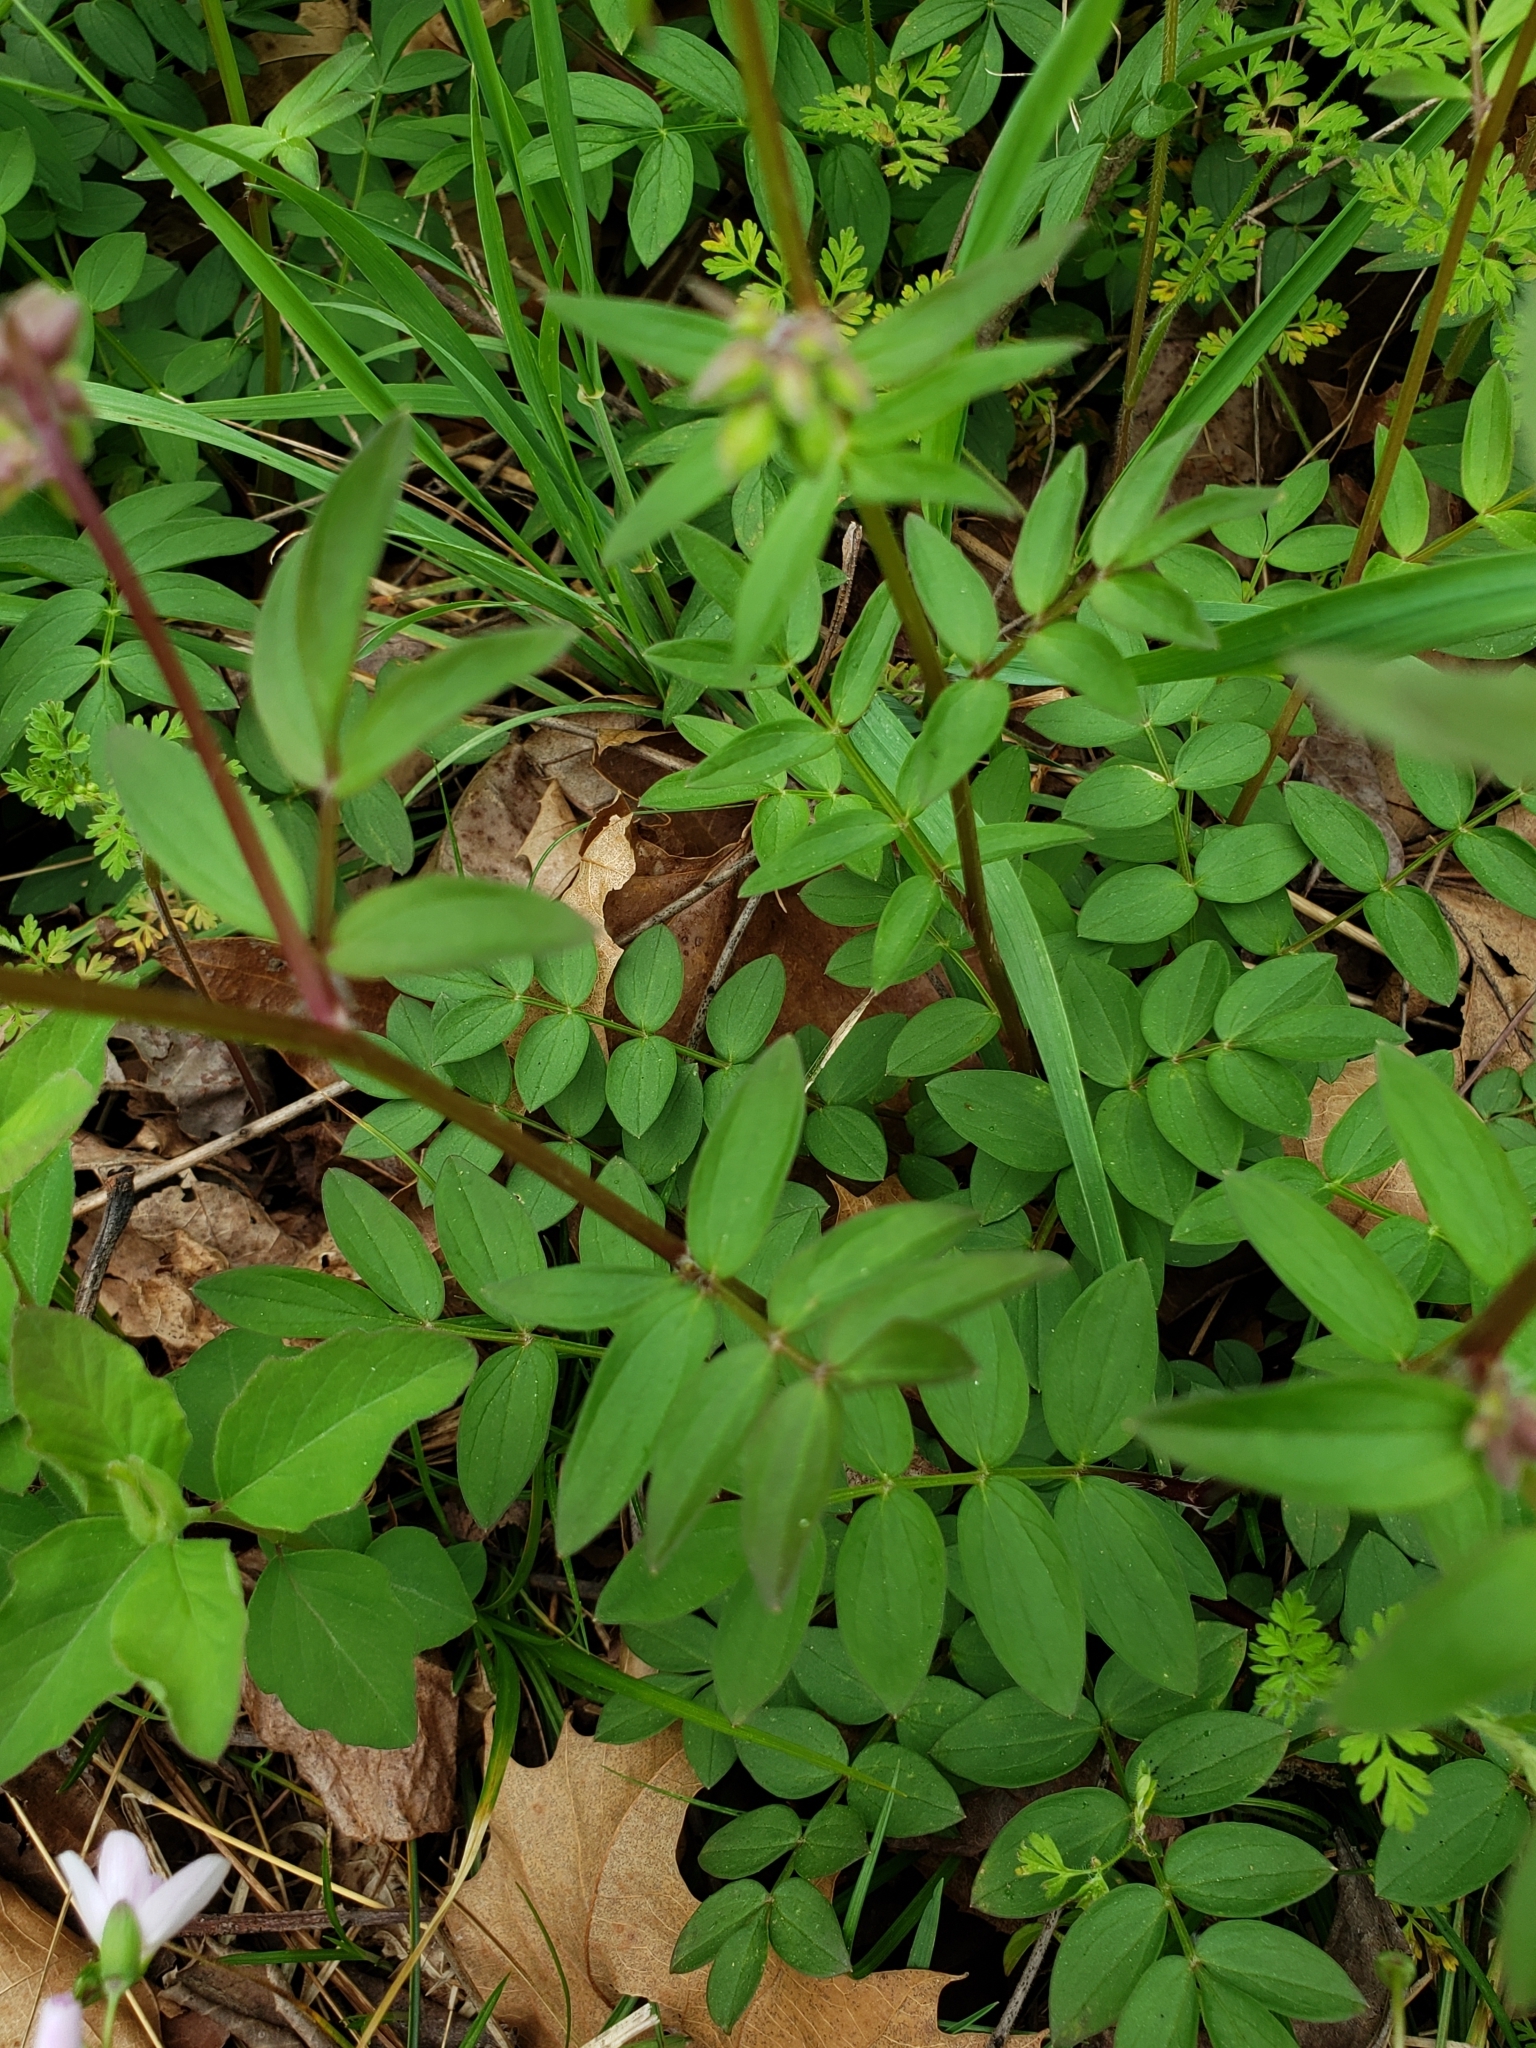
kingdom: Plantae
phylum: Tracheophyta
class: Magnoliopsida
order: Ericales
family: Polemoniaceae
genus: Polemonium
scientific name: Polemonium reptans
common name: Creeping jacob's-ladder
